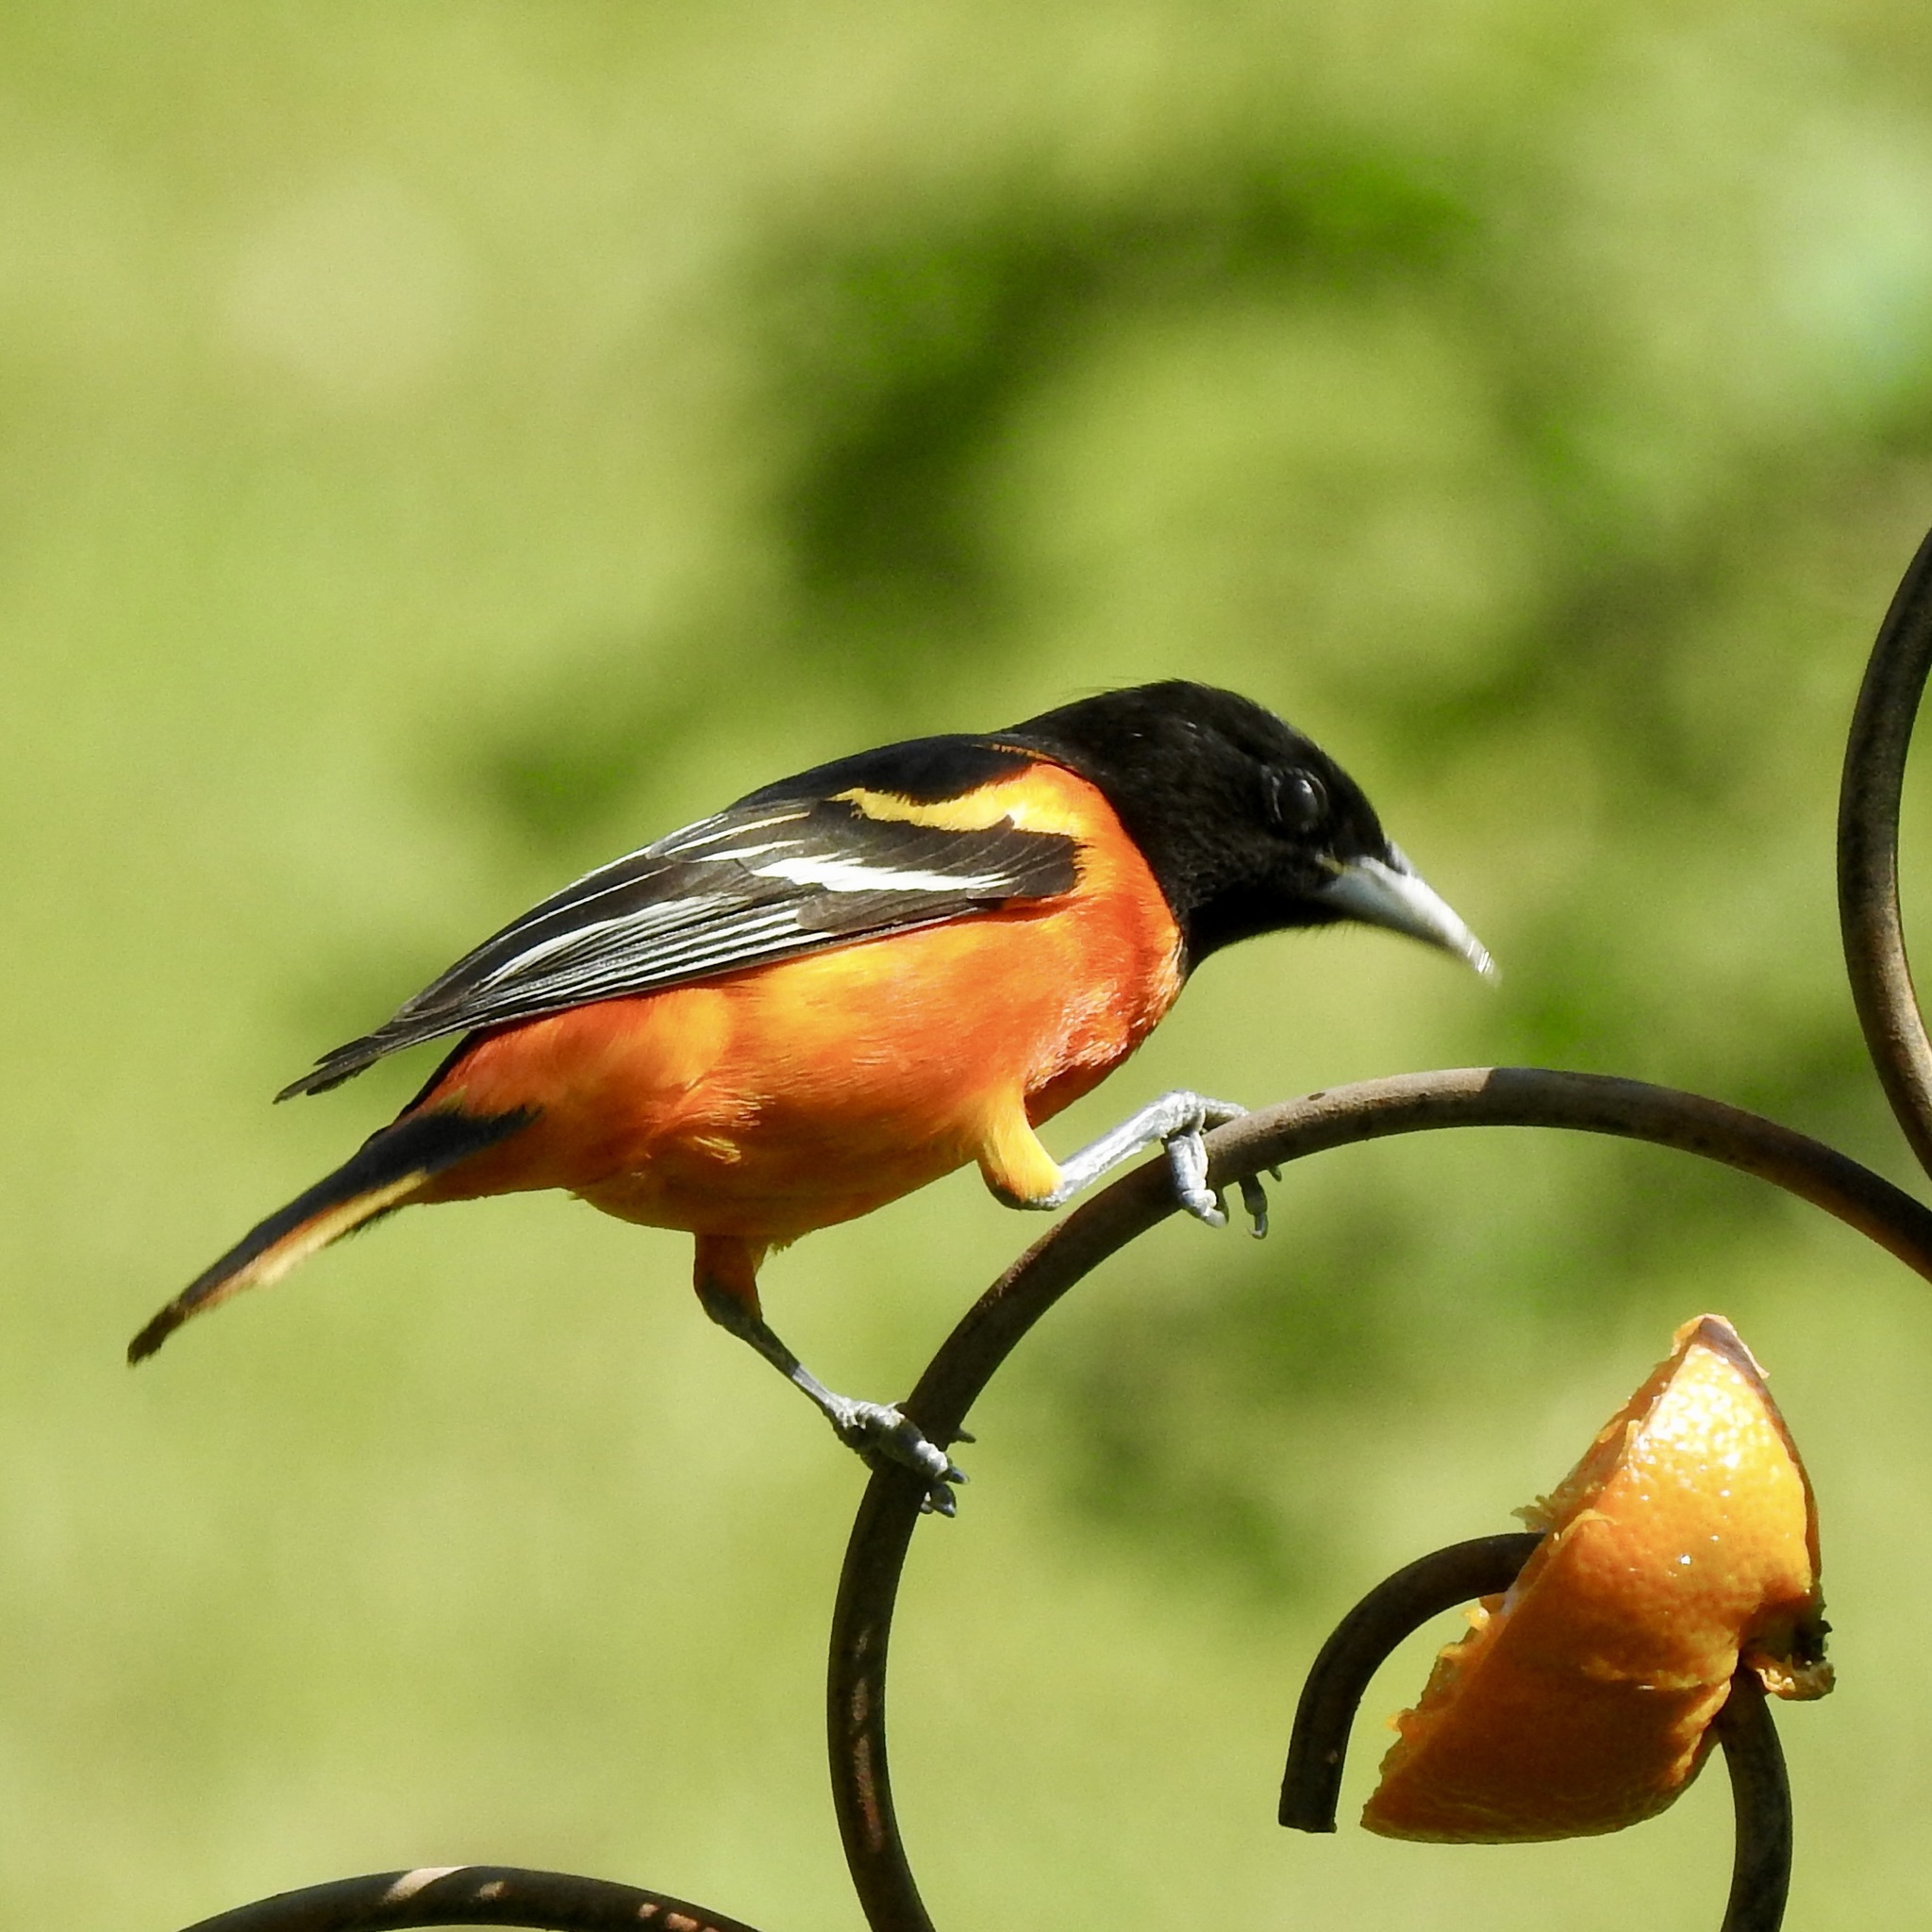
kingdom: Animalia
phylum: Chordata
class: Aves
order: Passeriformes
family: Icteridae
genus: Icterus
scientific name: Icterus galbula
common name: Baltimore oriole
